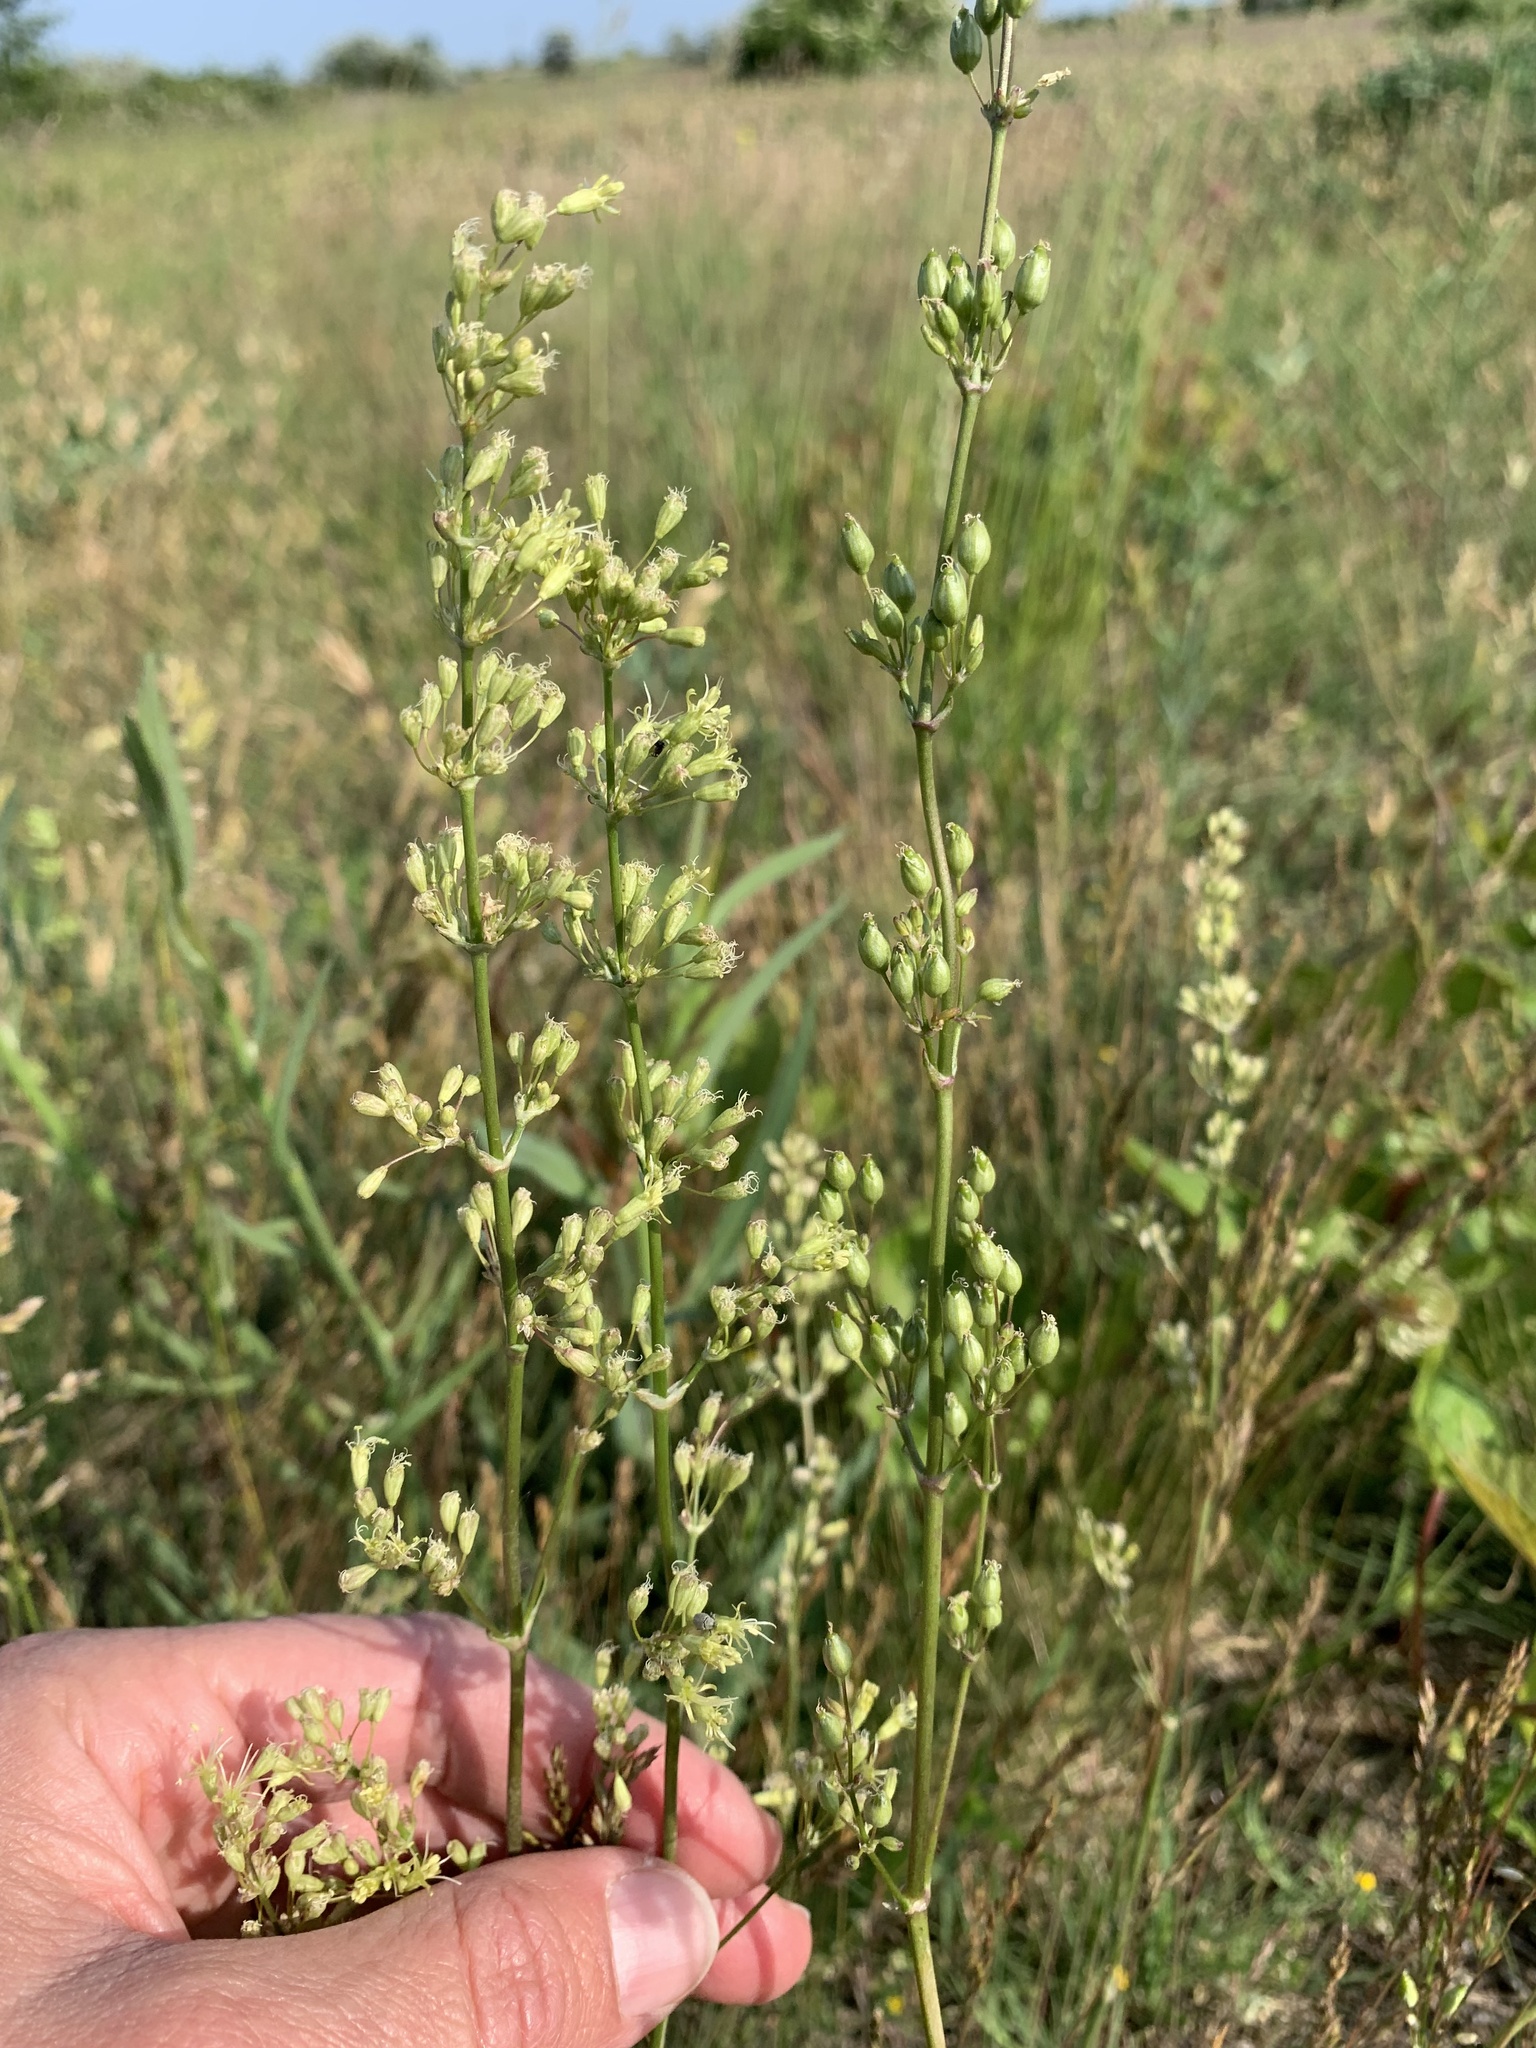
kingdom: Plantae
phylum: Tracheophyta
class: Magnoliopsida
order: Caryophyllales
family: Caryophyllaceae
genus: Silene
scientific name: Silene otites
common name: Spanish catchfly
